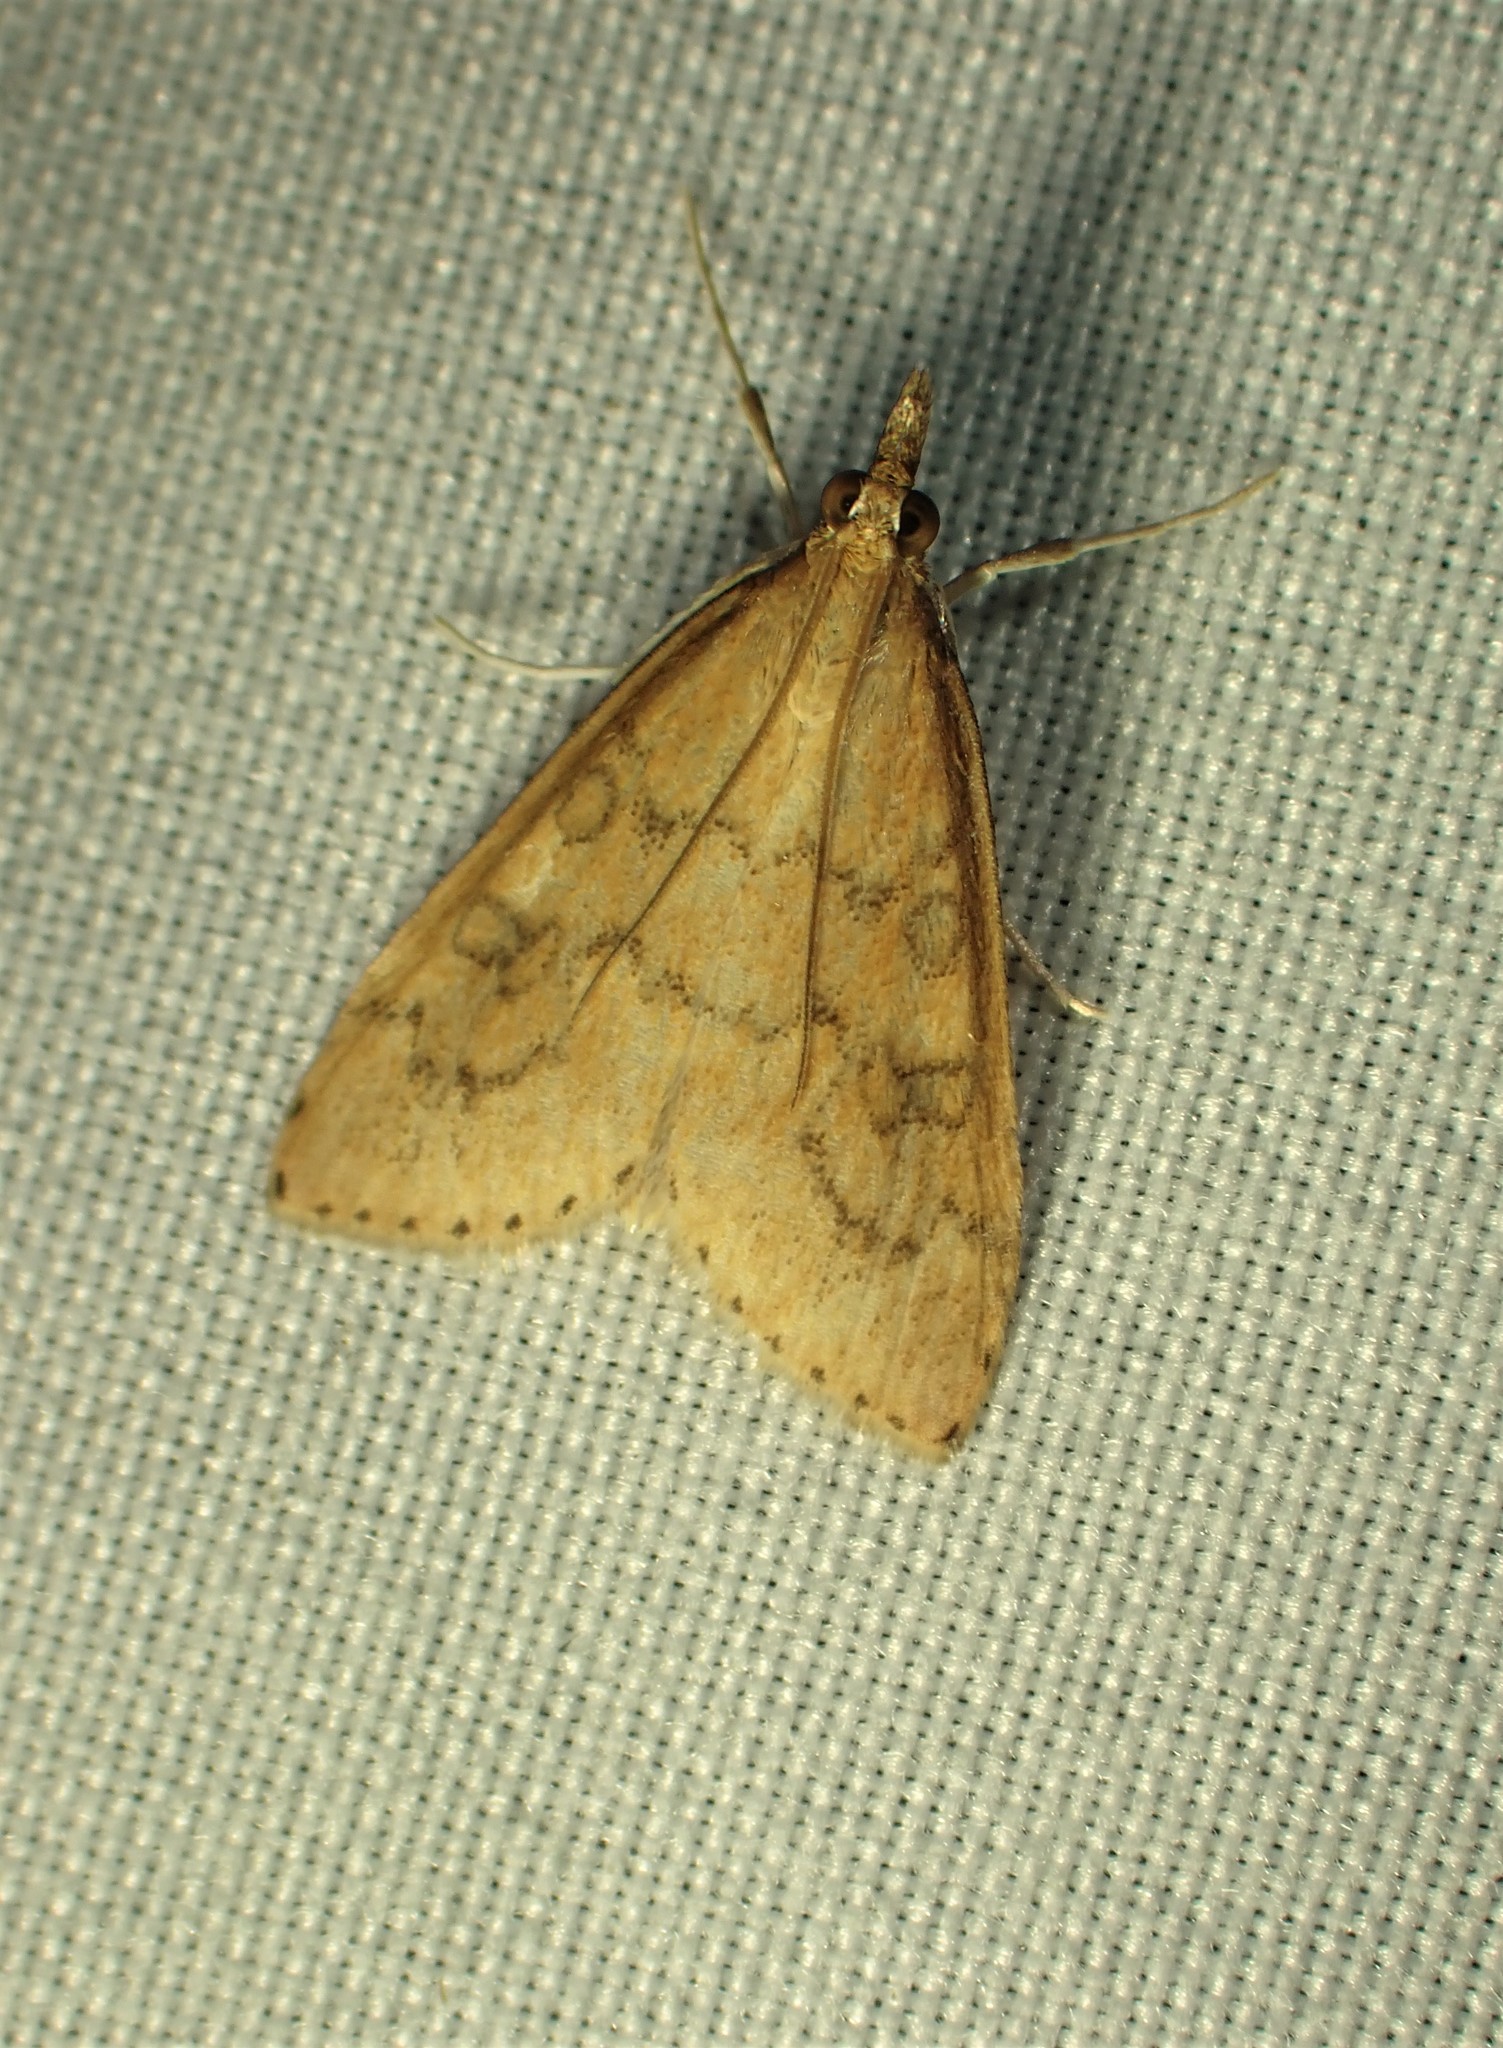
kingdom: Animalia
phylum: Arthropoda
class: Insecta
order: Lepidoptera
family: Crambidae
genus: Udea
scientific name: Udea rubigalis
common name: Celery leaftier moth
